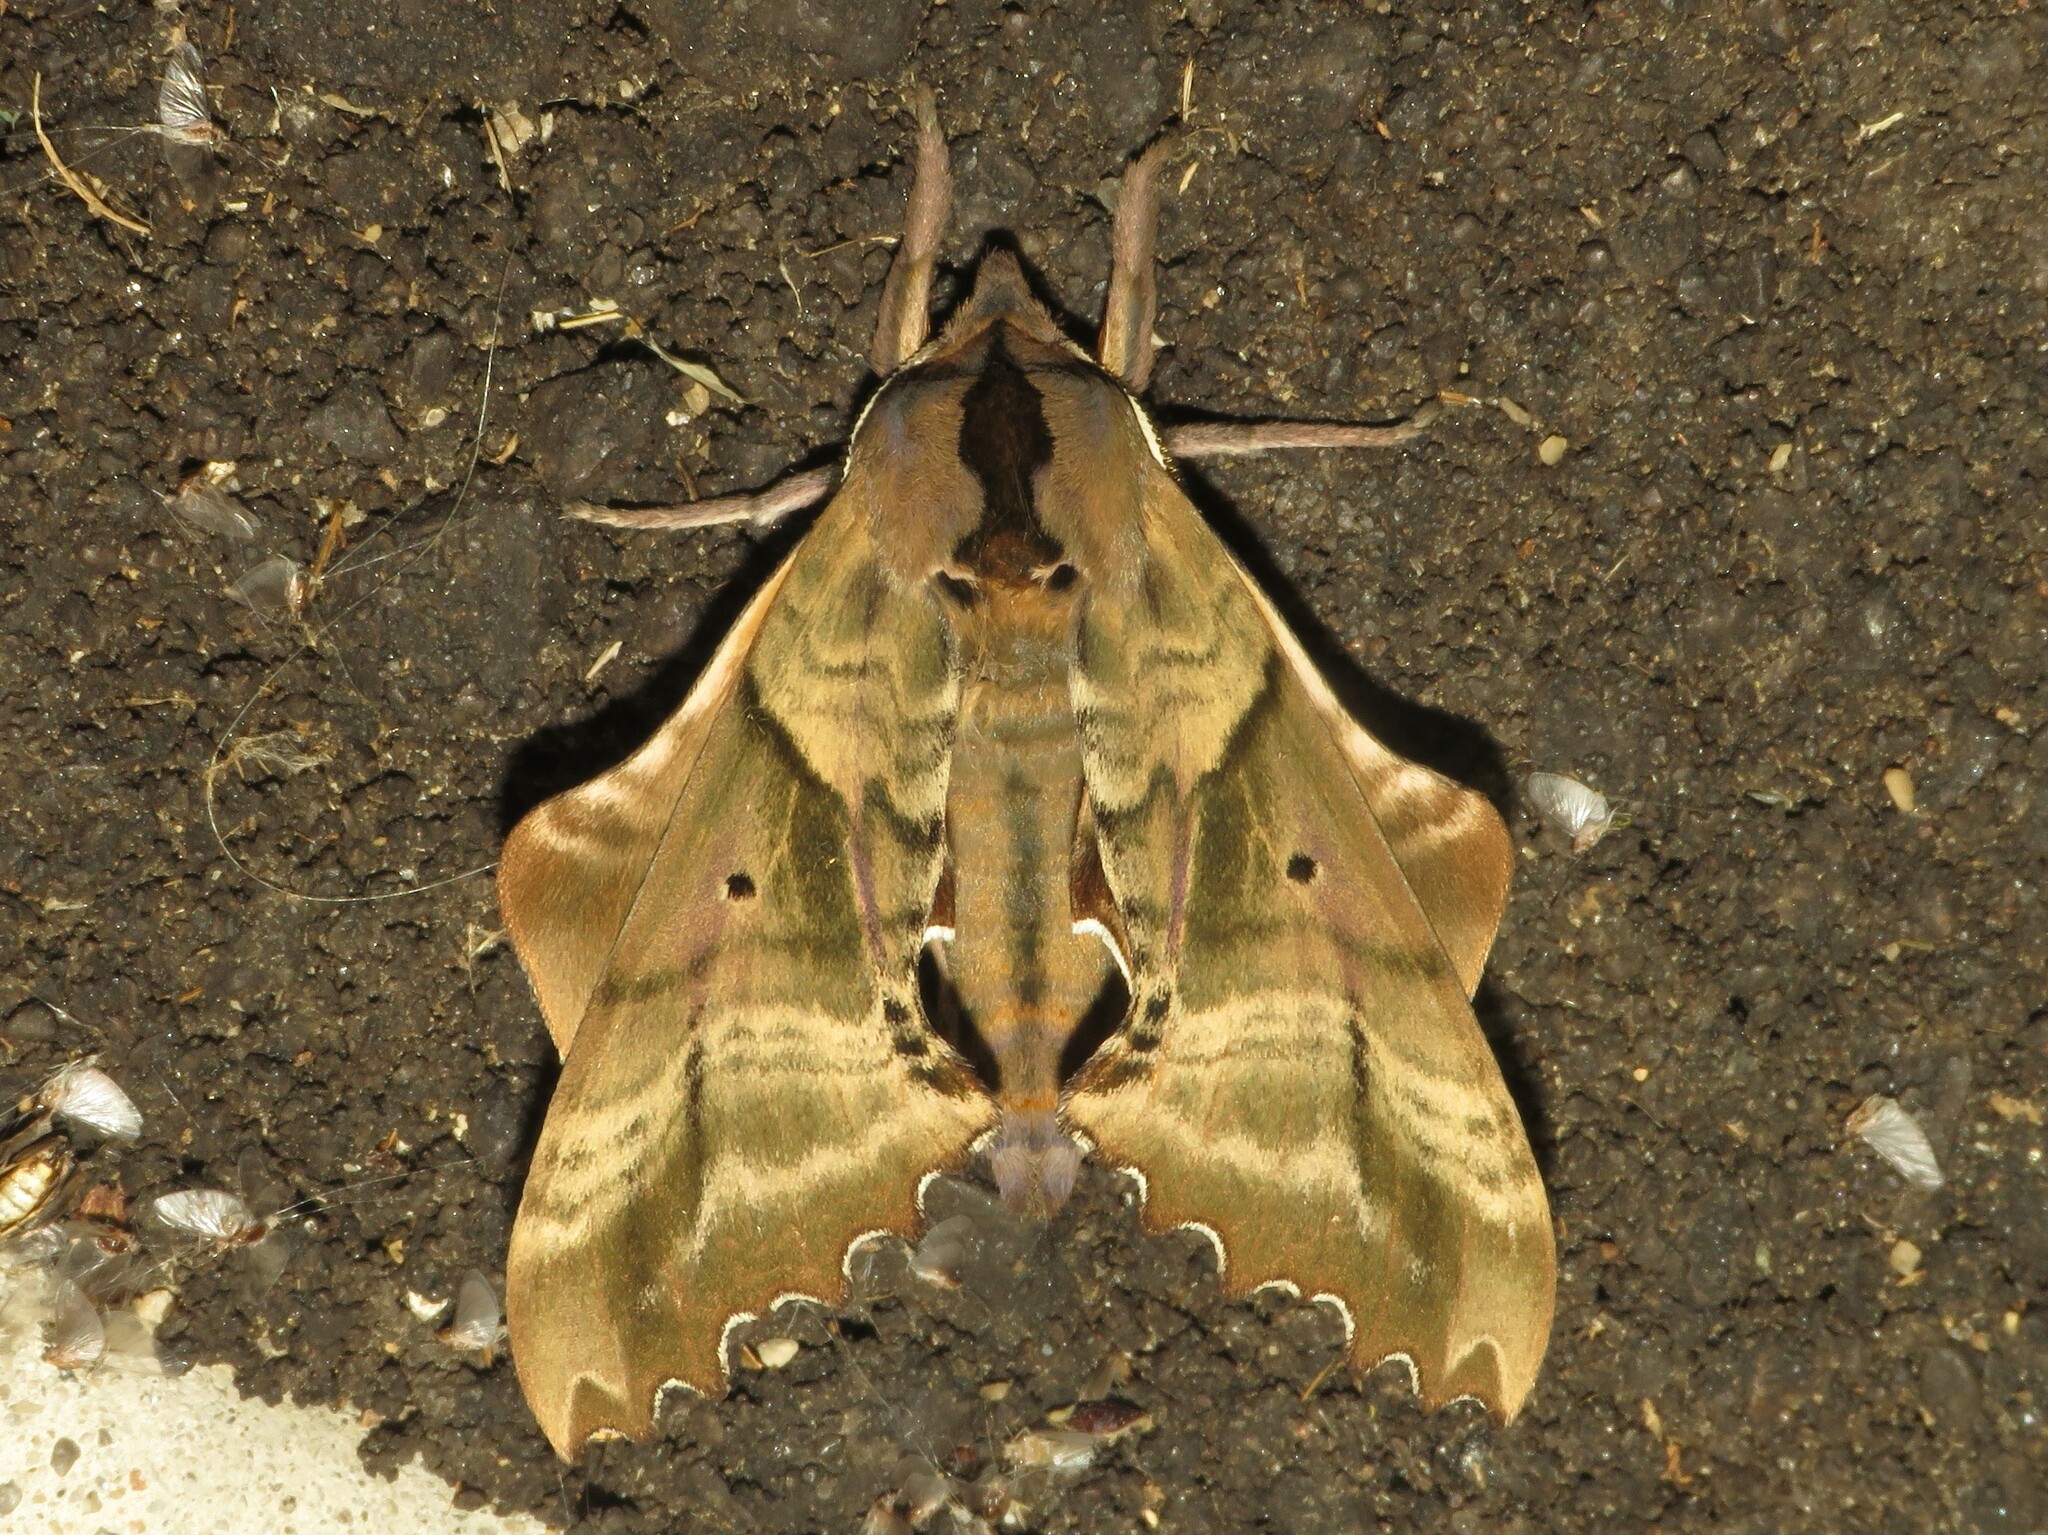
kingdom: Animalia
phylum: Arthropoda
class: Insecta
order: Lepidoptera
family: Sphingidae
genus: Paonias
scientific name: Paonias excaecata
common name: Blind-eyed sphinx
